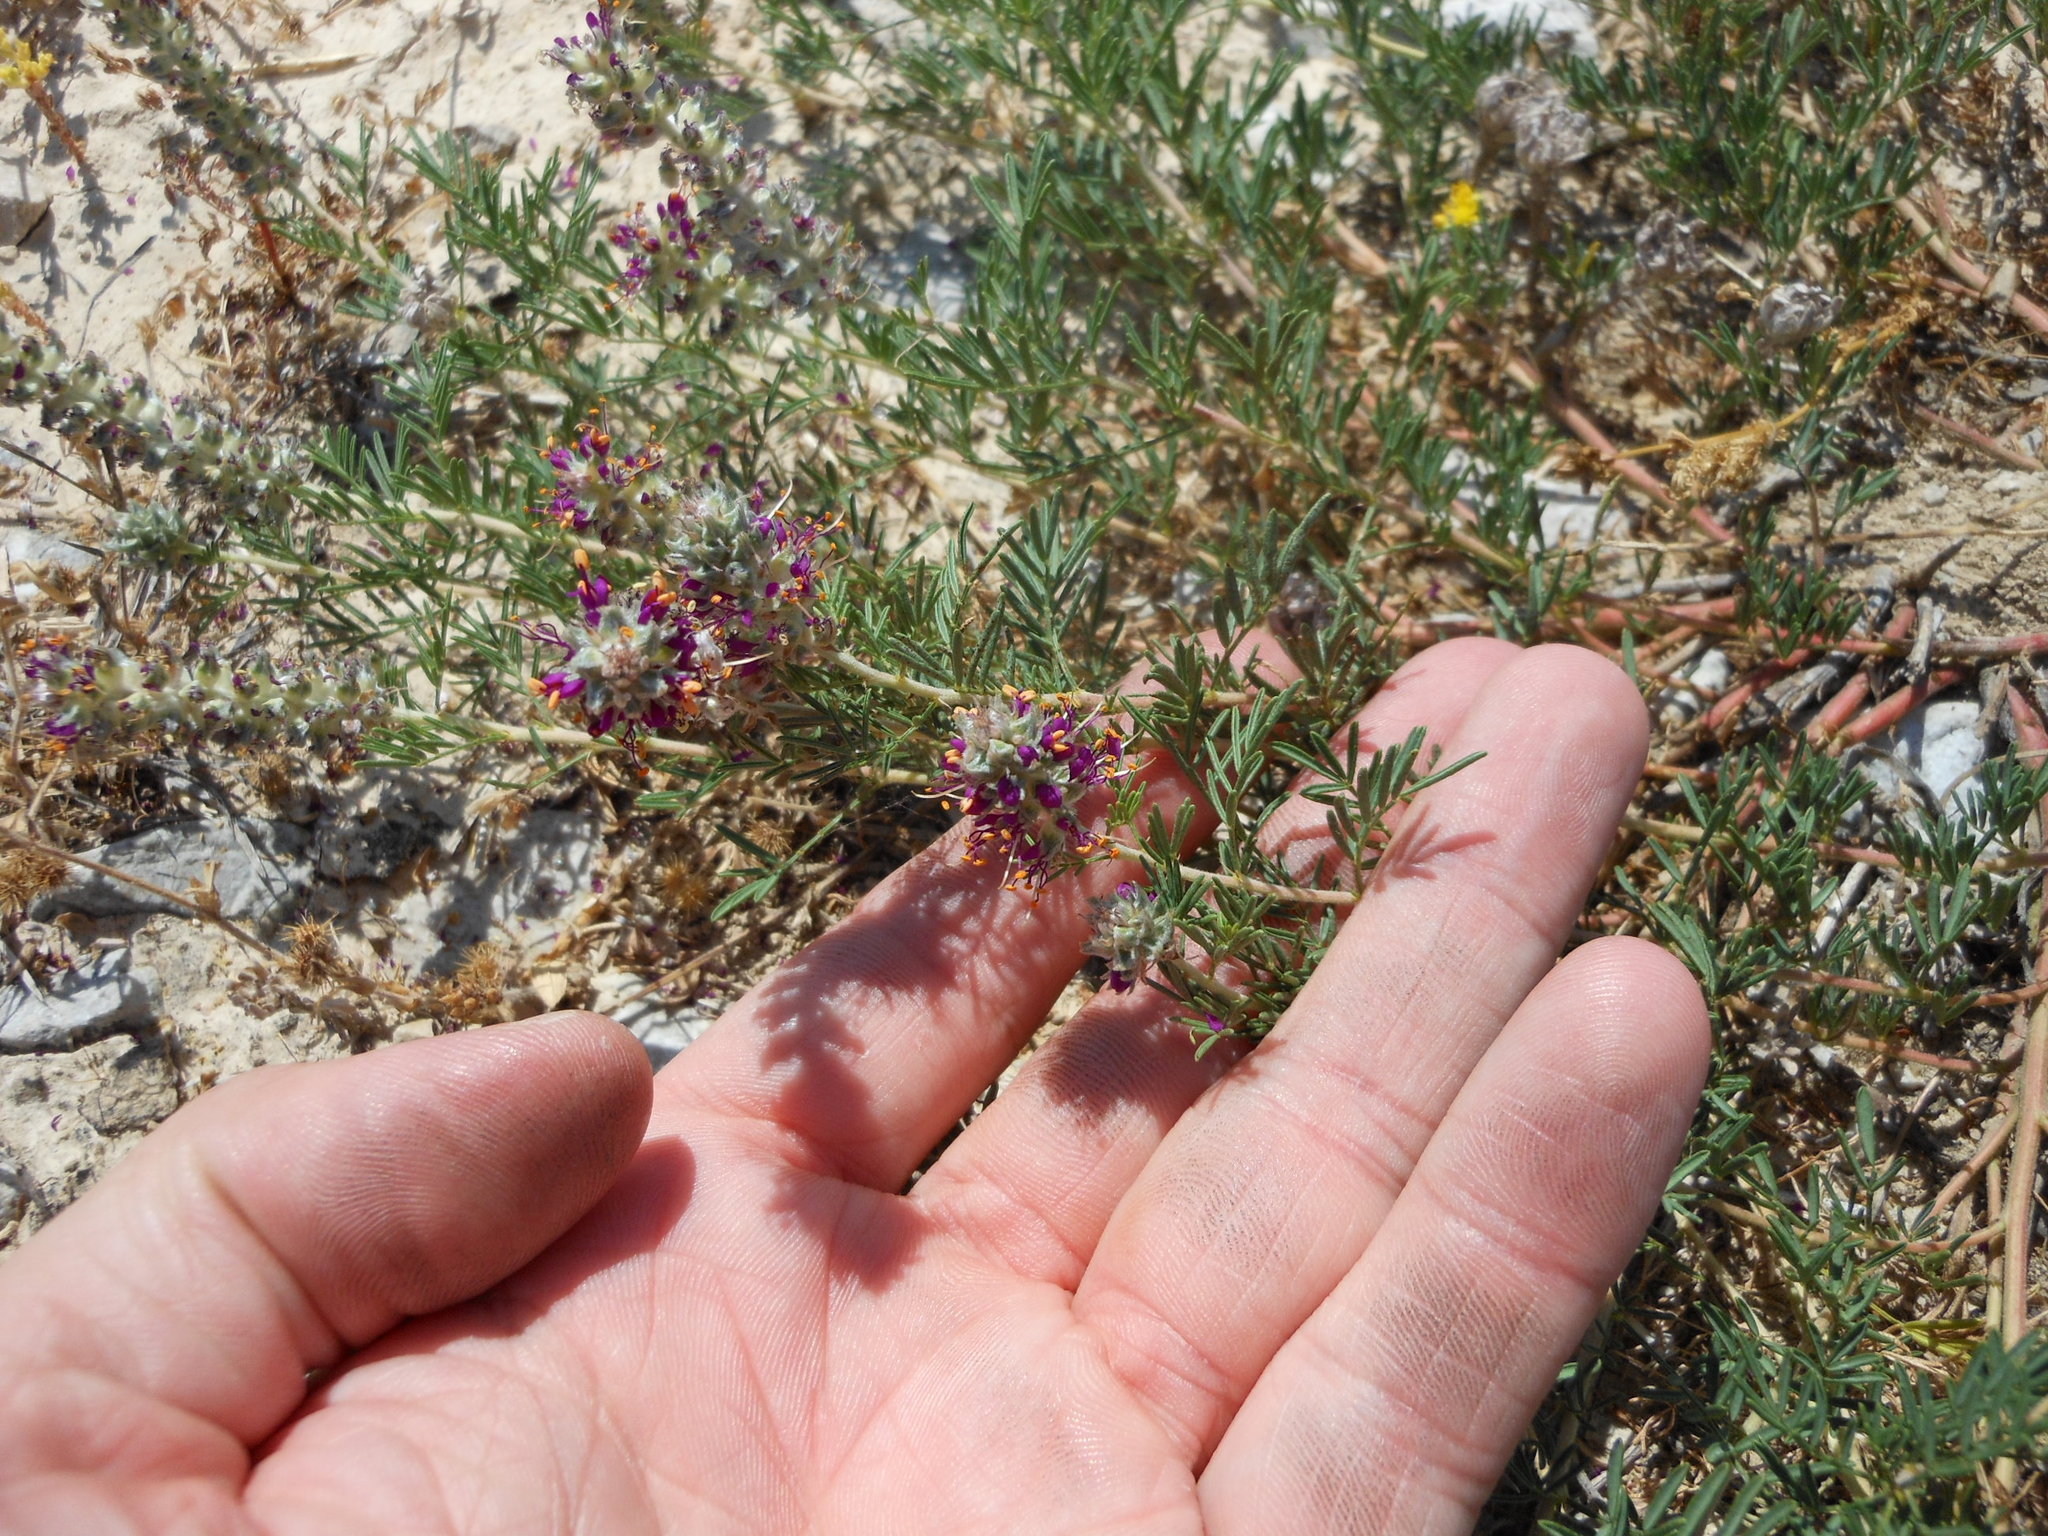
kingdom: Plantae
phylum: Tracheophyta
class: Magnoliopsida
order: Fabales
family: Fabaceae
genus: Dalea
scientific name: Dalea reverchonii
